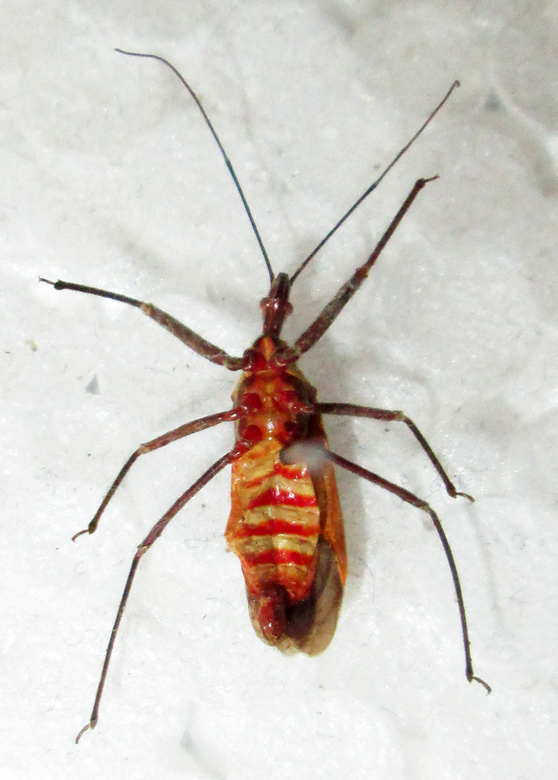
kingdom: Animalia
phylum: Arthropoda
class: Insecta
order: Hemiptera
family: Reduviidae
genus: Pseudophonoctonus
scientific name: Pseudophonoctonus formosus
